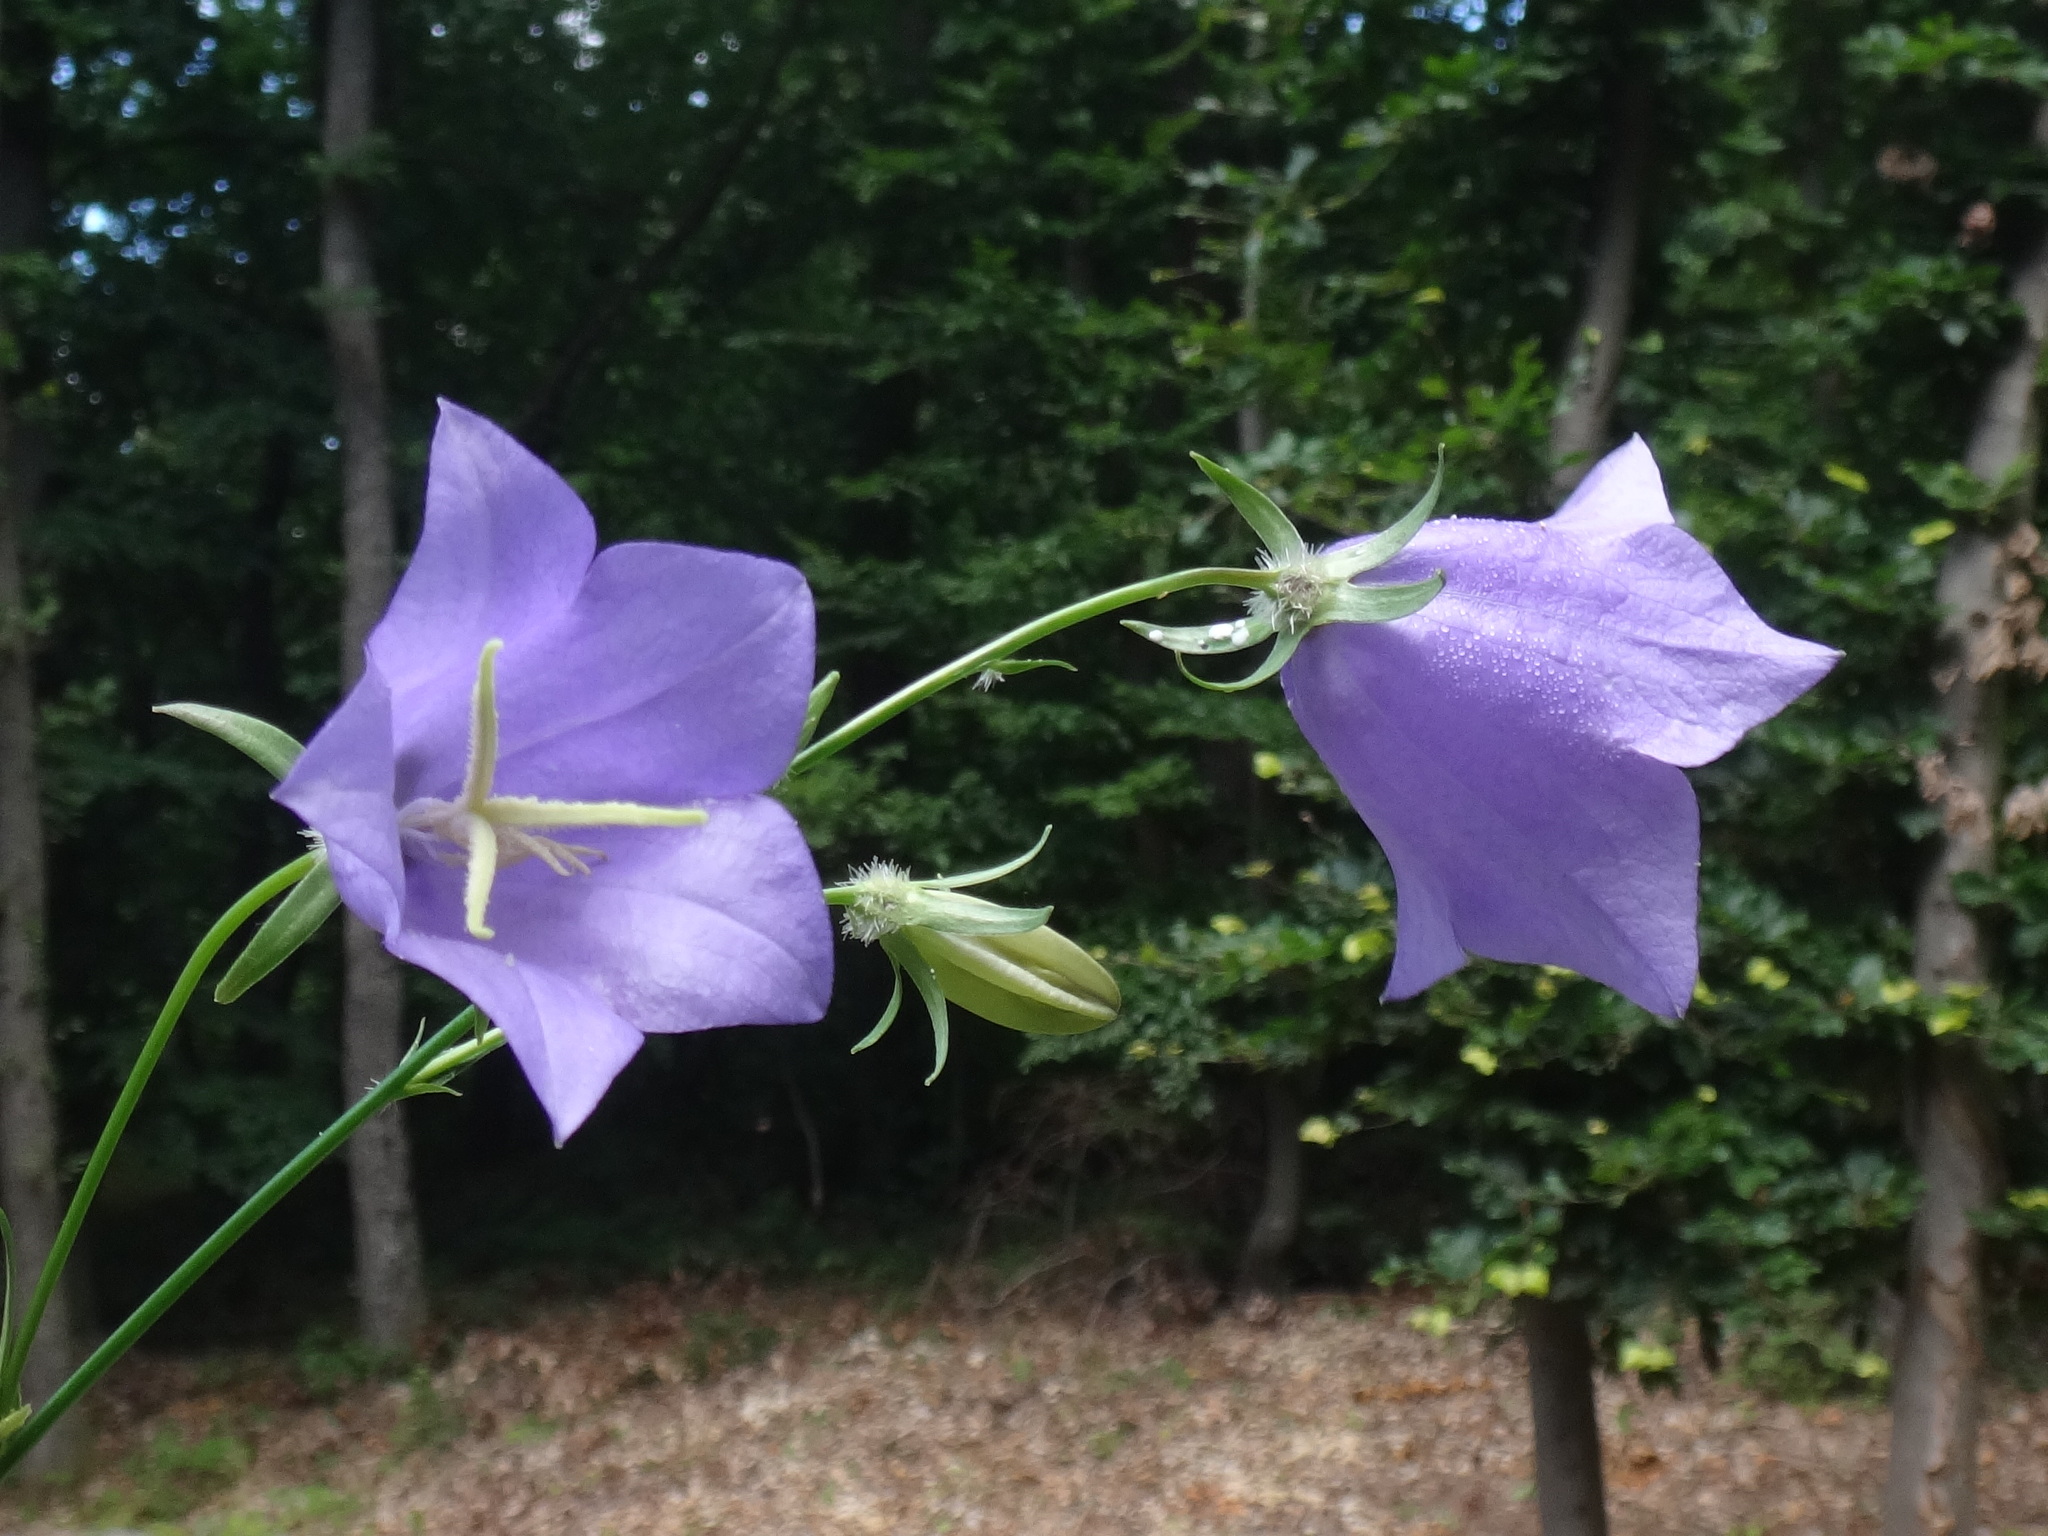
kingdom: Plantae
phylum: Tracheophyta
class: Magnoliopsida
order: Asterales
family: Campanulaceae
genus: Campanula
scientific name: Campanula persicifolia
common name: Peach-leaved bellflower
